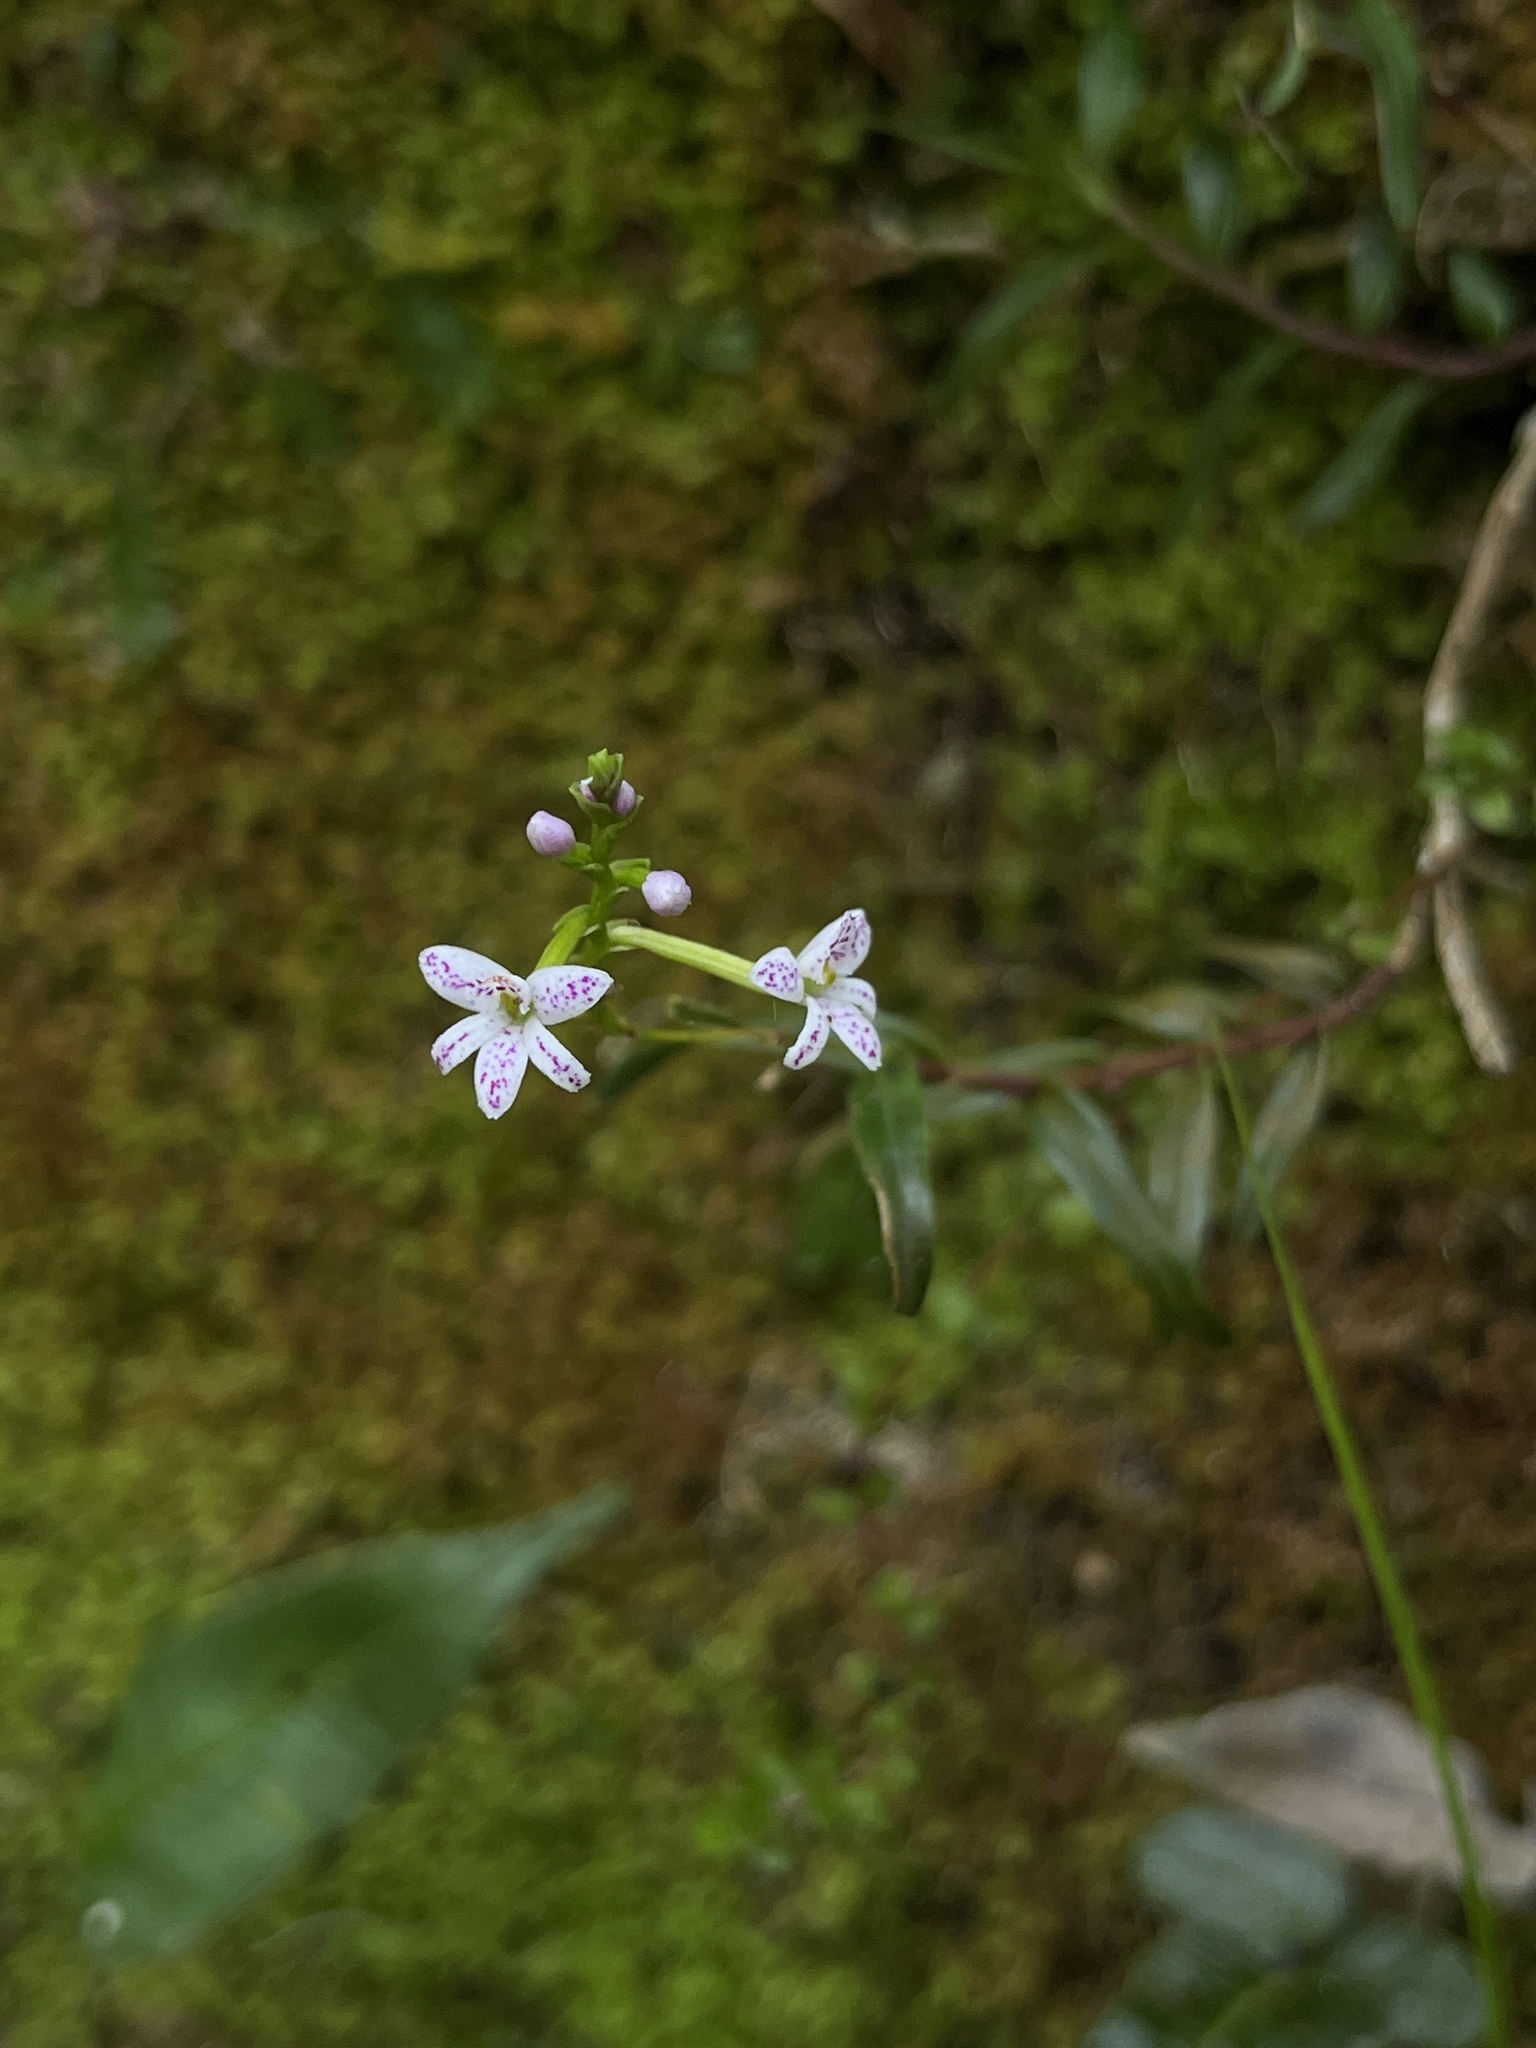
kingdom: Plantae
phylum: Tracheophyta
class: Liliopsida
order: Asparagales
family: Orchidaceae
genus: Epidendrum
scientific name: Epidendrum fimbriatum
